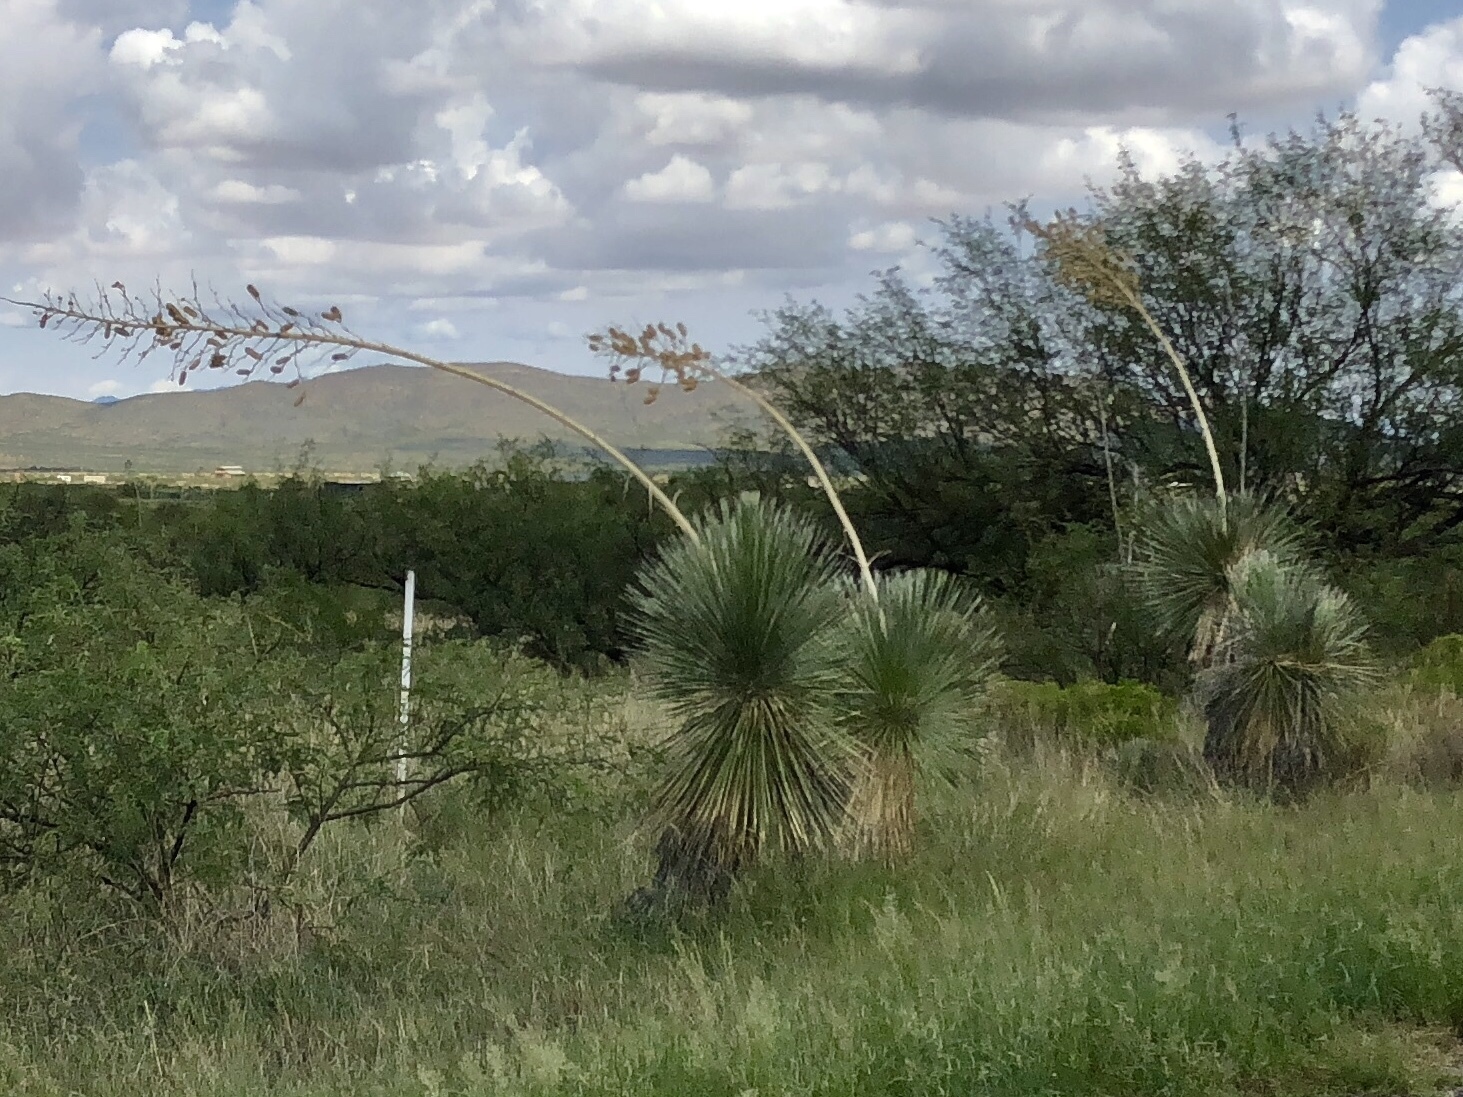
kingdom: Plantae
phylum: Tracheophyta
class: Liliopsida
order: Asparagales
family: Asparagaceae
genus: Yucca
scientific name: Yucca elata
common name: Palmella
